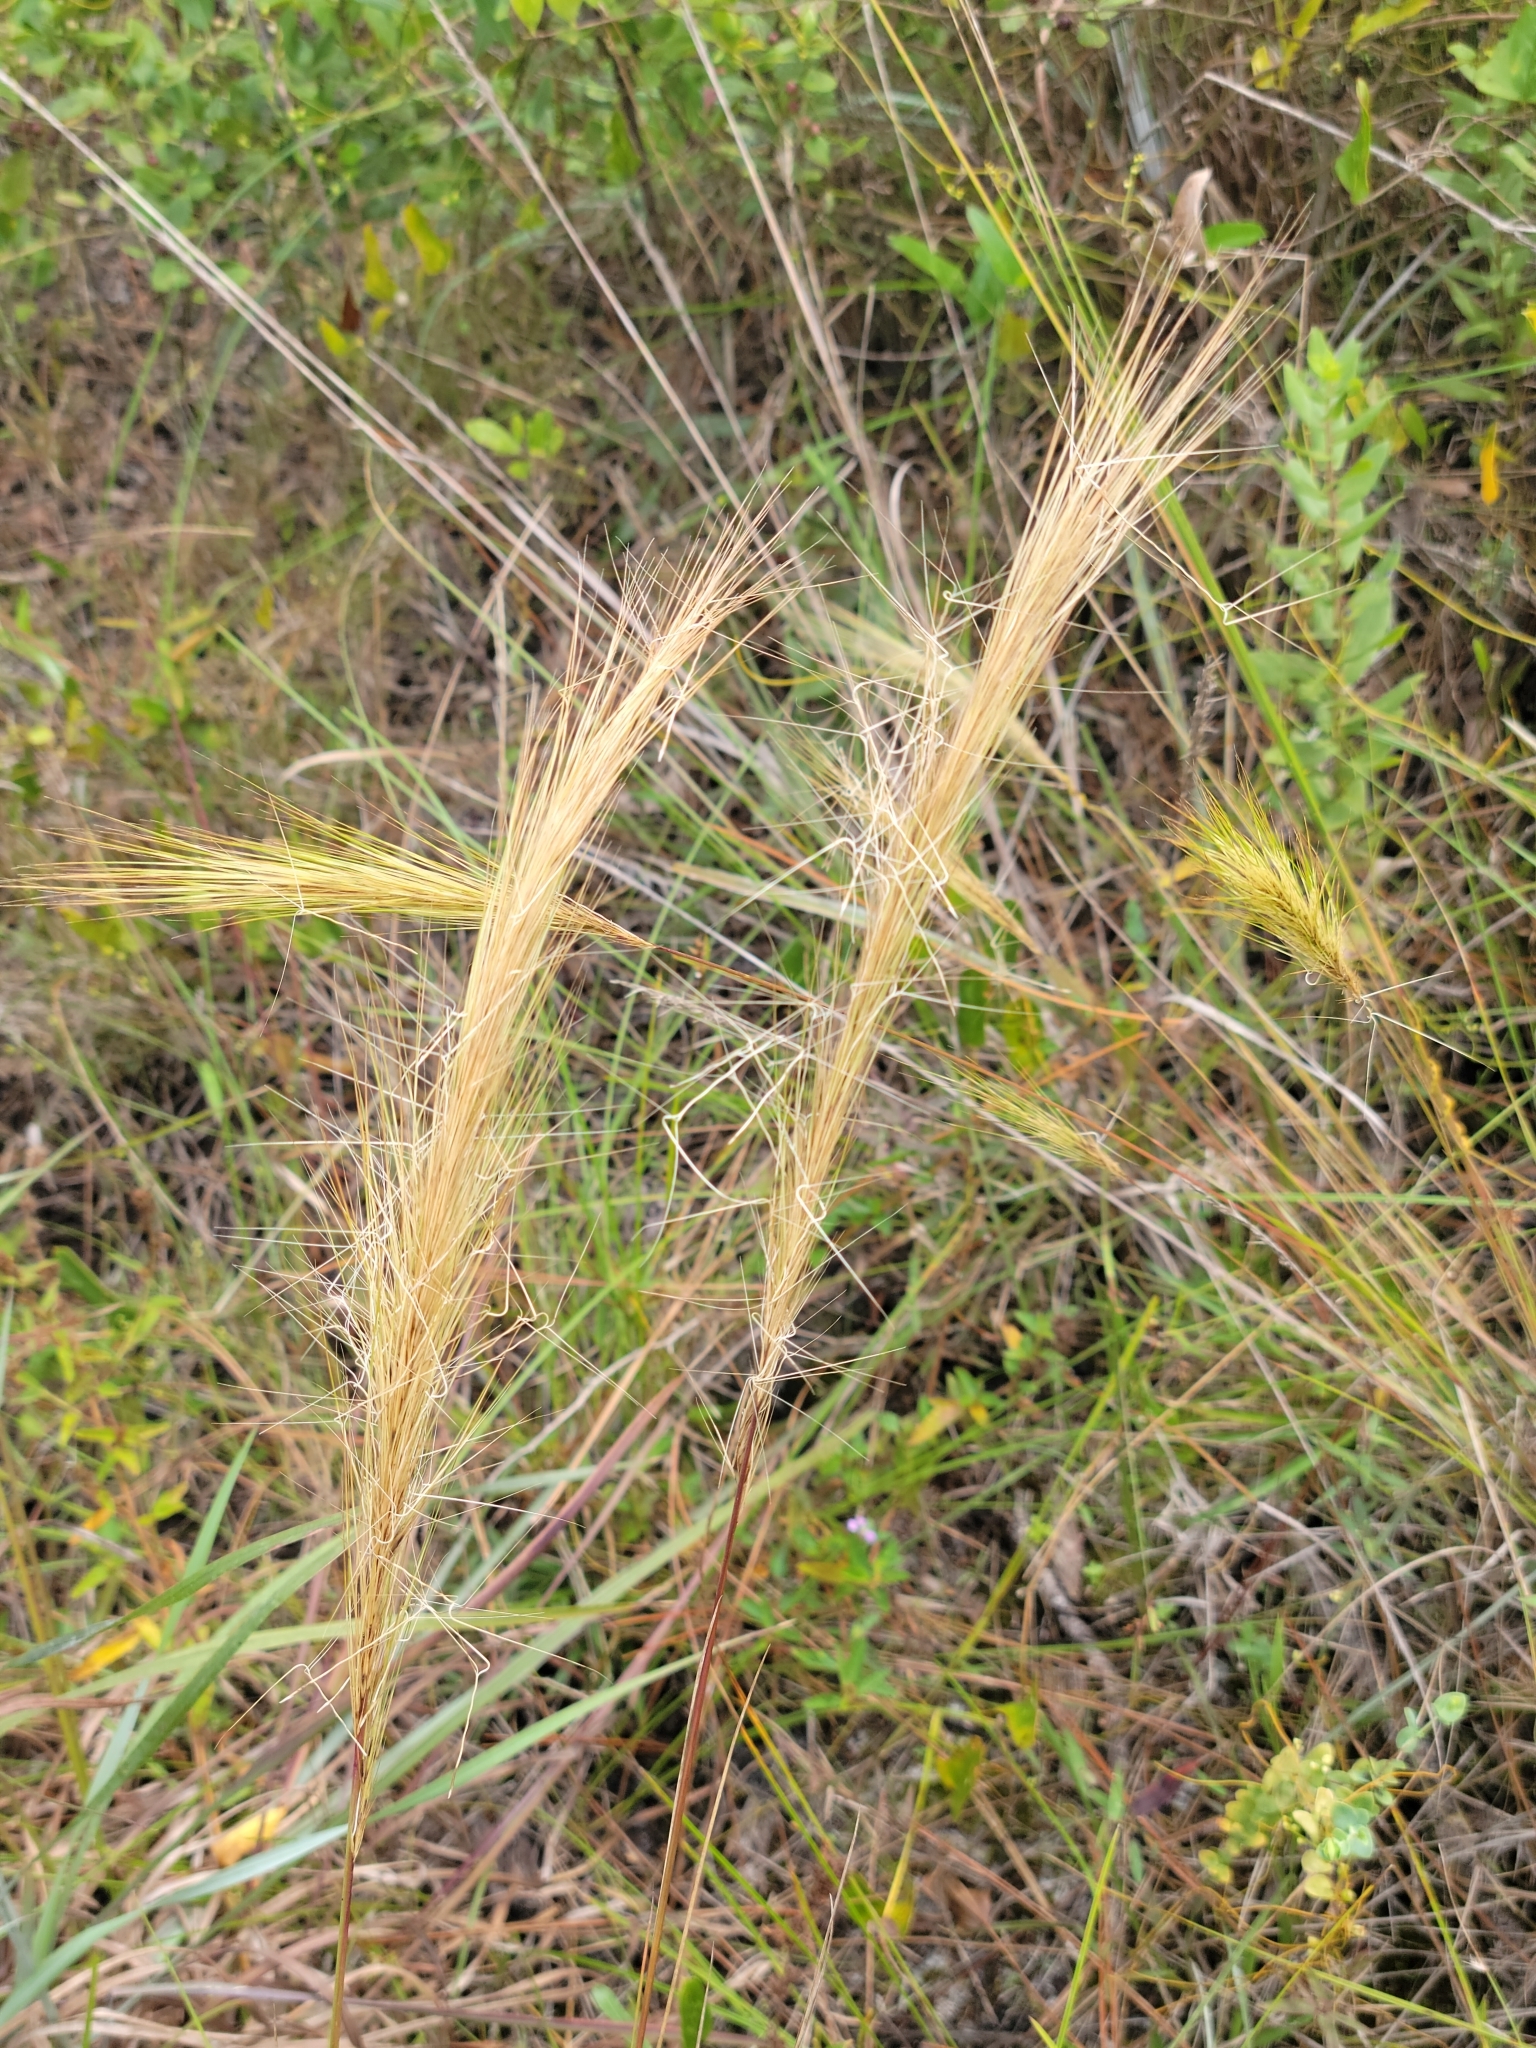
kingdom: Plantae
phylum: Tracheophyta
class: Liliopsida
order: Poales
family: Poaceae
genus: Aristida
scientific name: Aristida spiciformis
